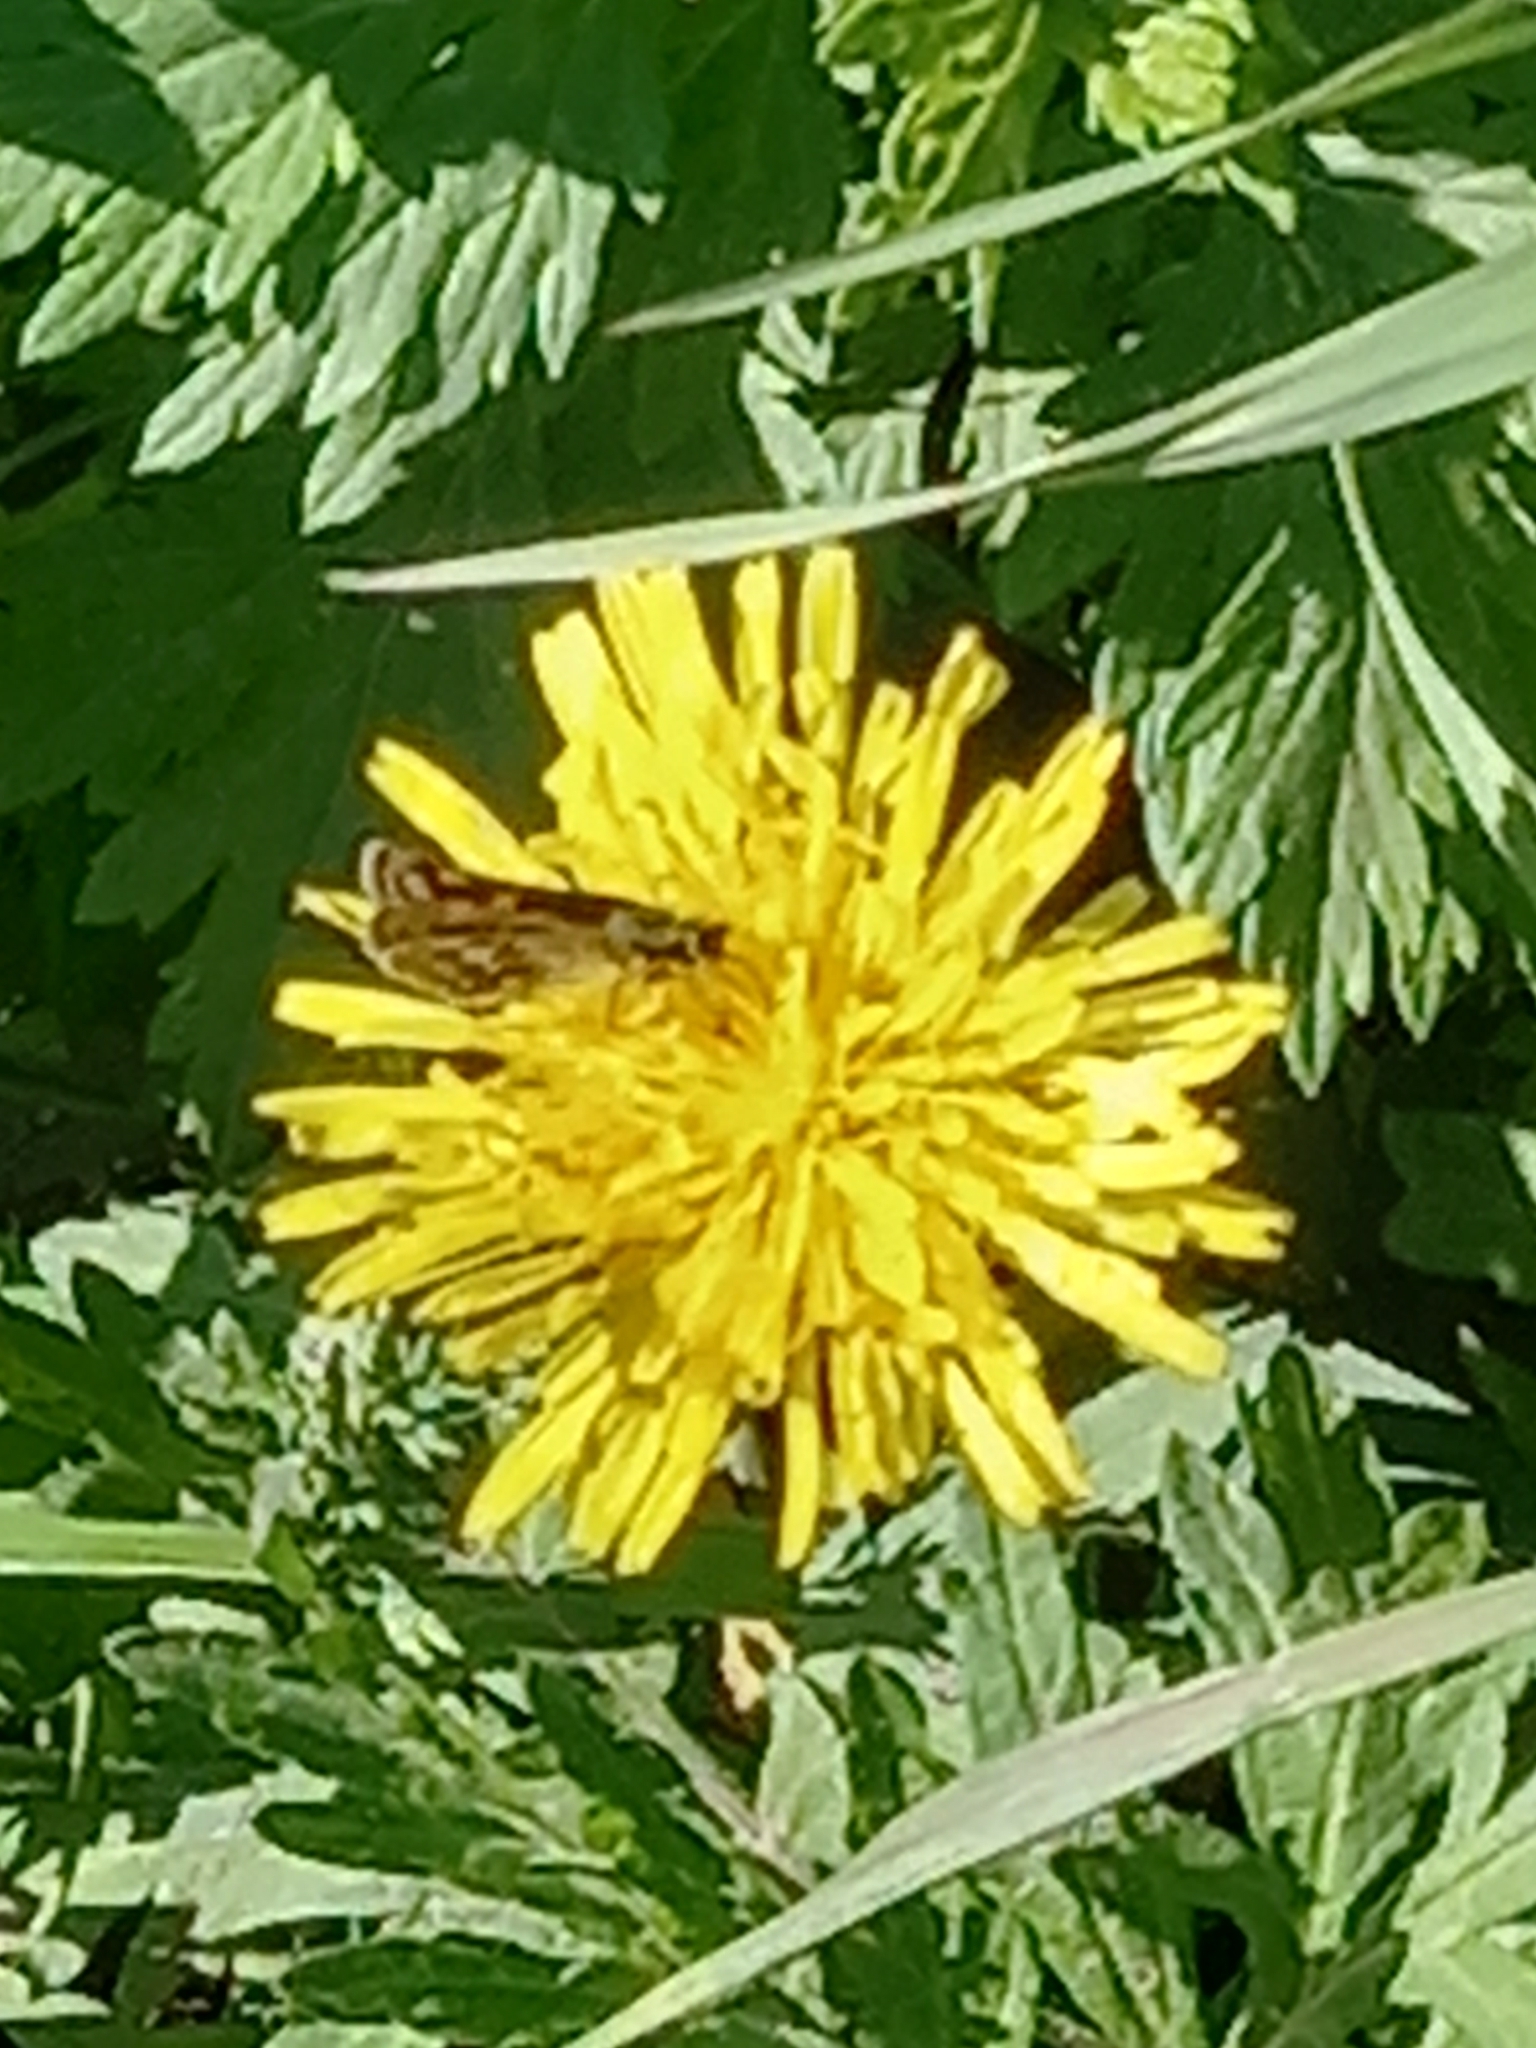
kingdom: Animalia
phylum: Arthropoda
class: Insecta
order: Lepidoptera
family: Hesperiidae
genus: Carterocephalus
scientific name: Carterocephalus palaemon
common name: Chequered skipper
